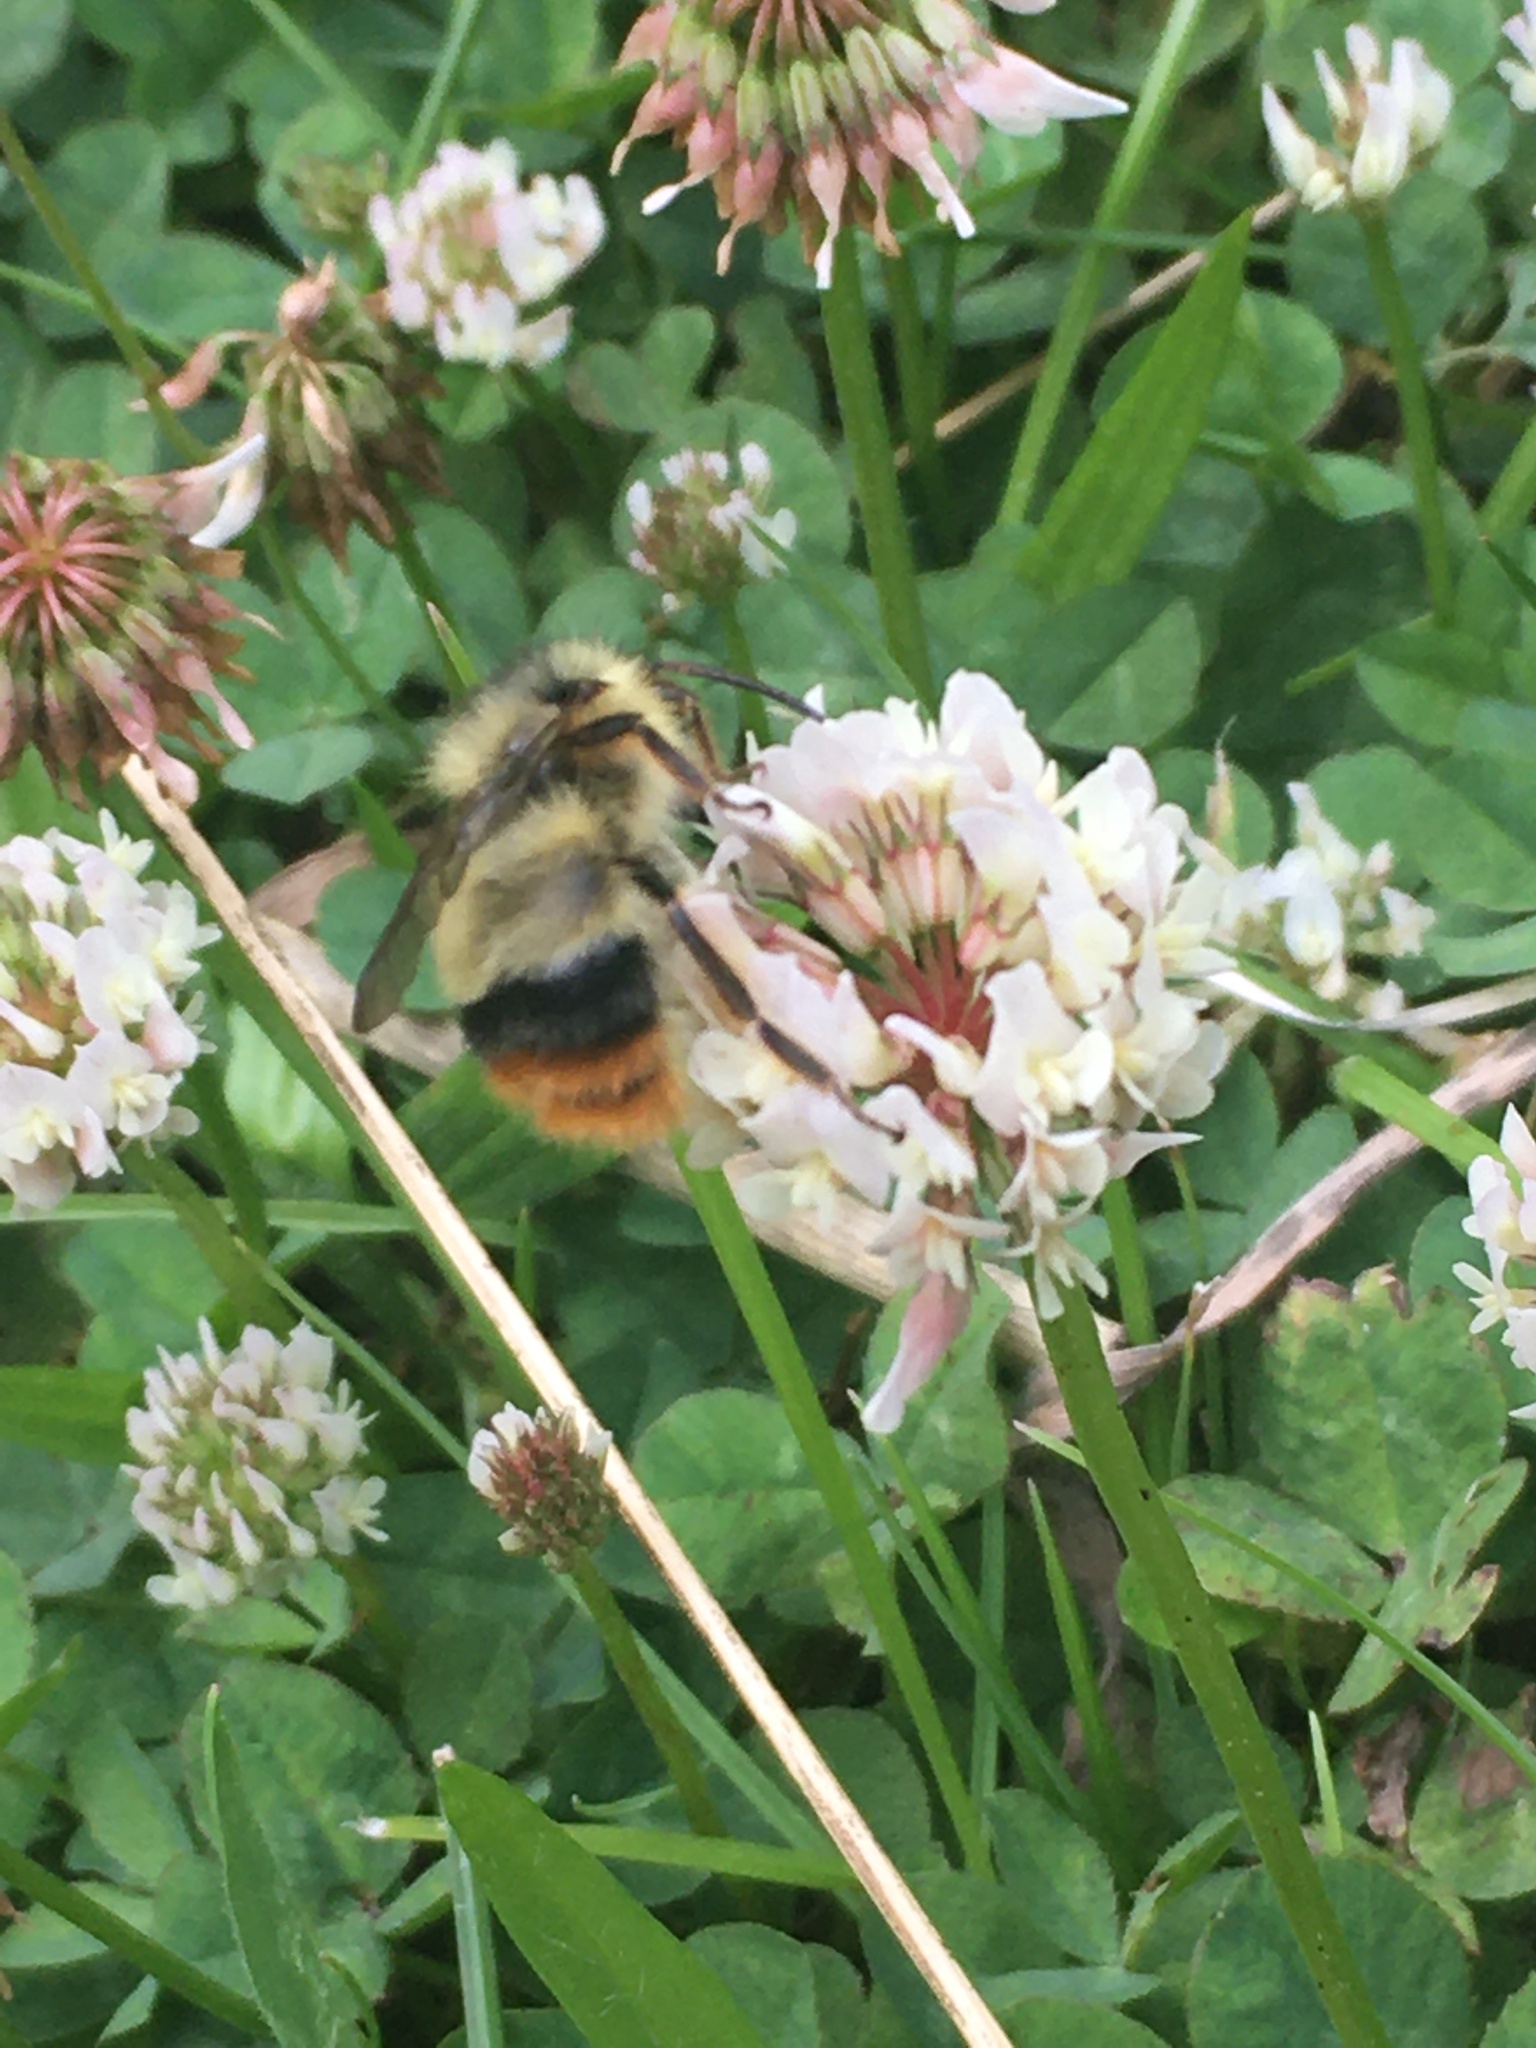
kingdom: Animalia
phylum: Arthropoda
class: Insecta
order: Hymenoptera
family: Apidae
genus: Bombus
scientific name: Bombus mixtus
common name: Fuzzy-horned bumble bee
